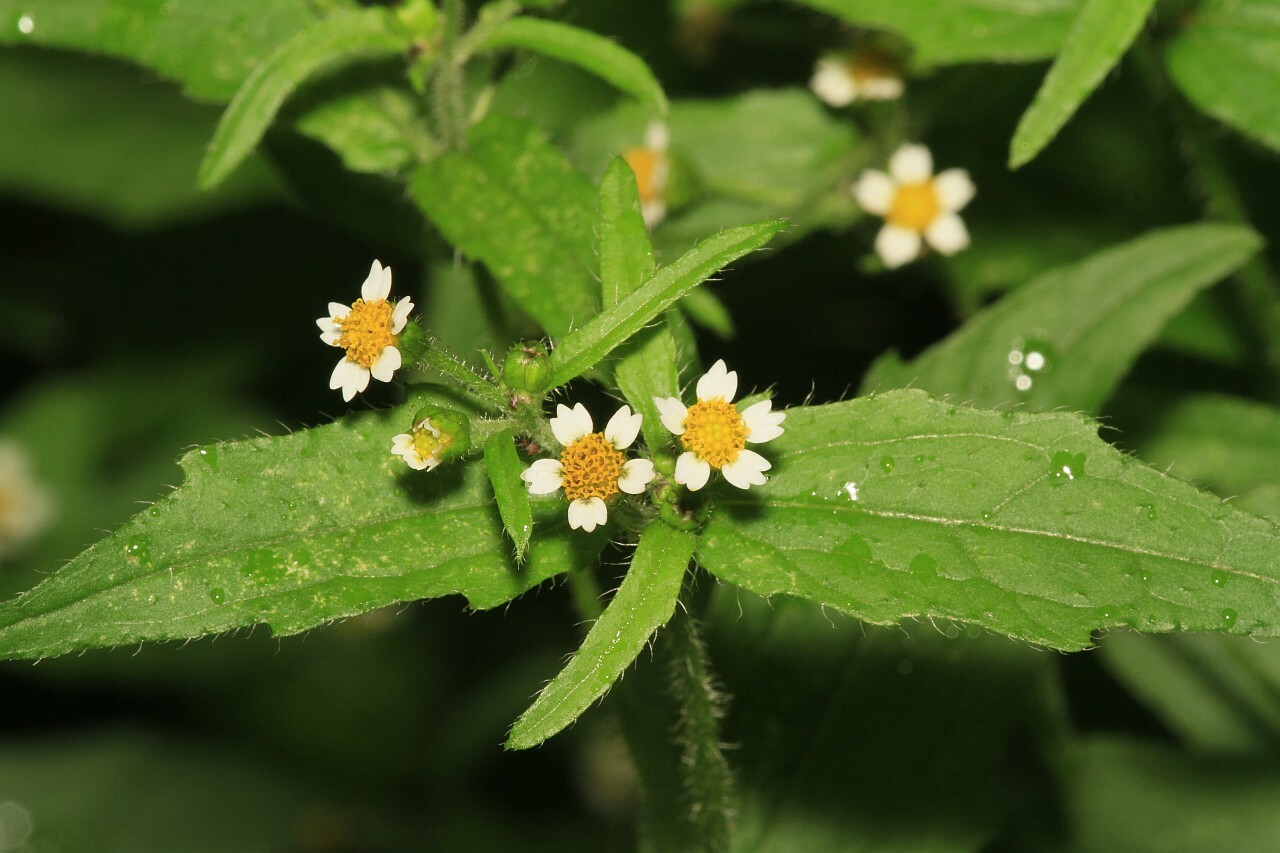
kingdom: Plantae
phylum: Tracheophyta
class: Magnoliopsida
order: Asterales
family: Asteraceae
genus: Galinsoga
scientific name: Galinsoga quadriradiata
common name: Shaggy soldier
